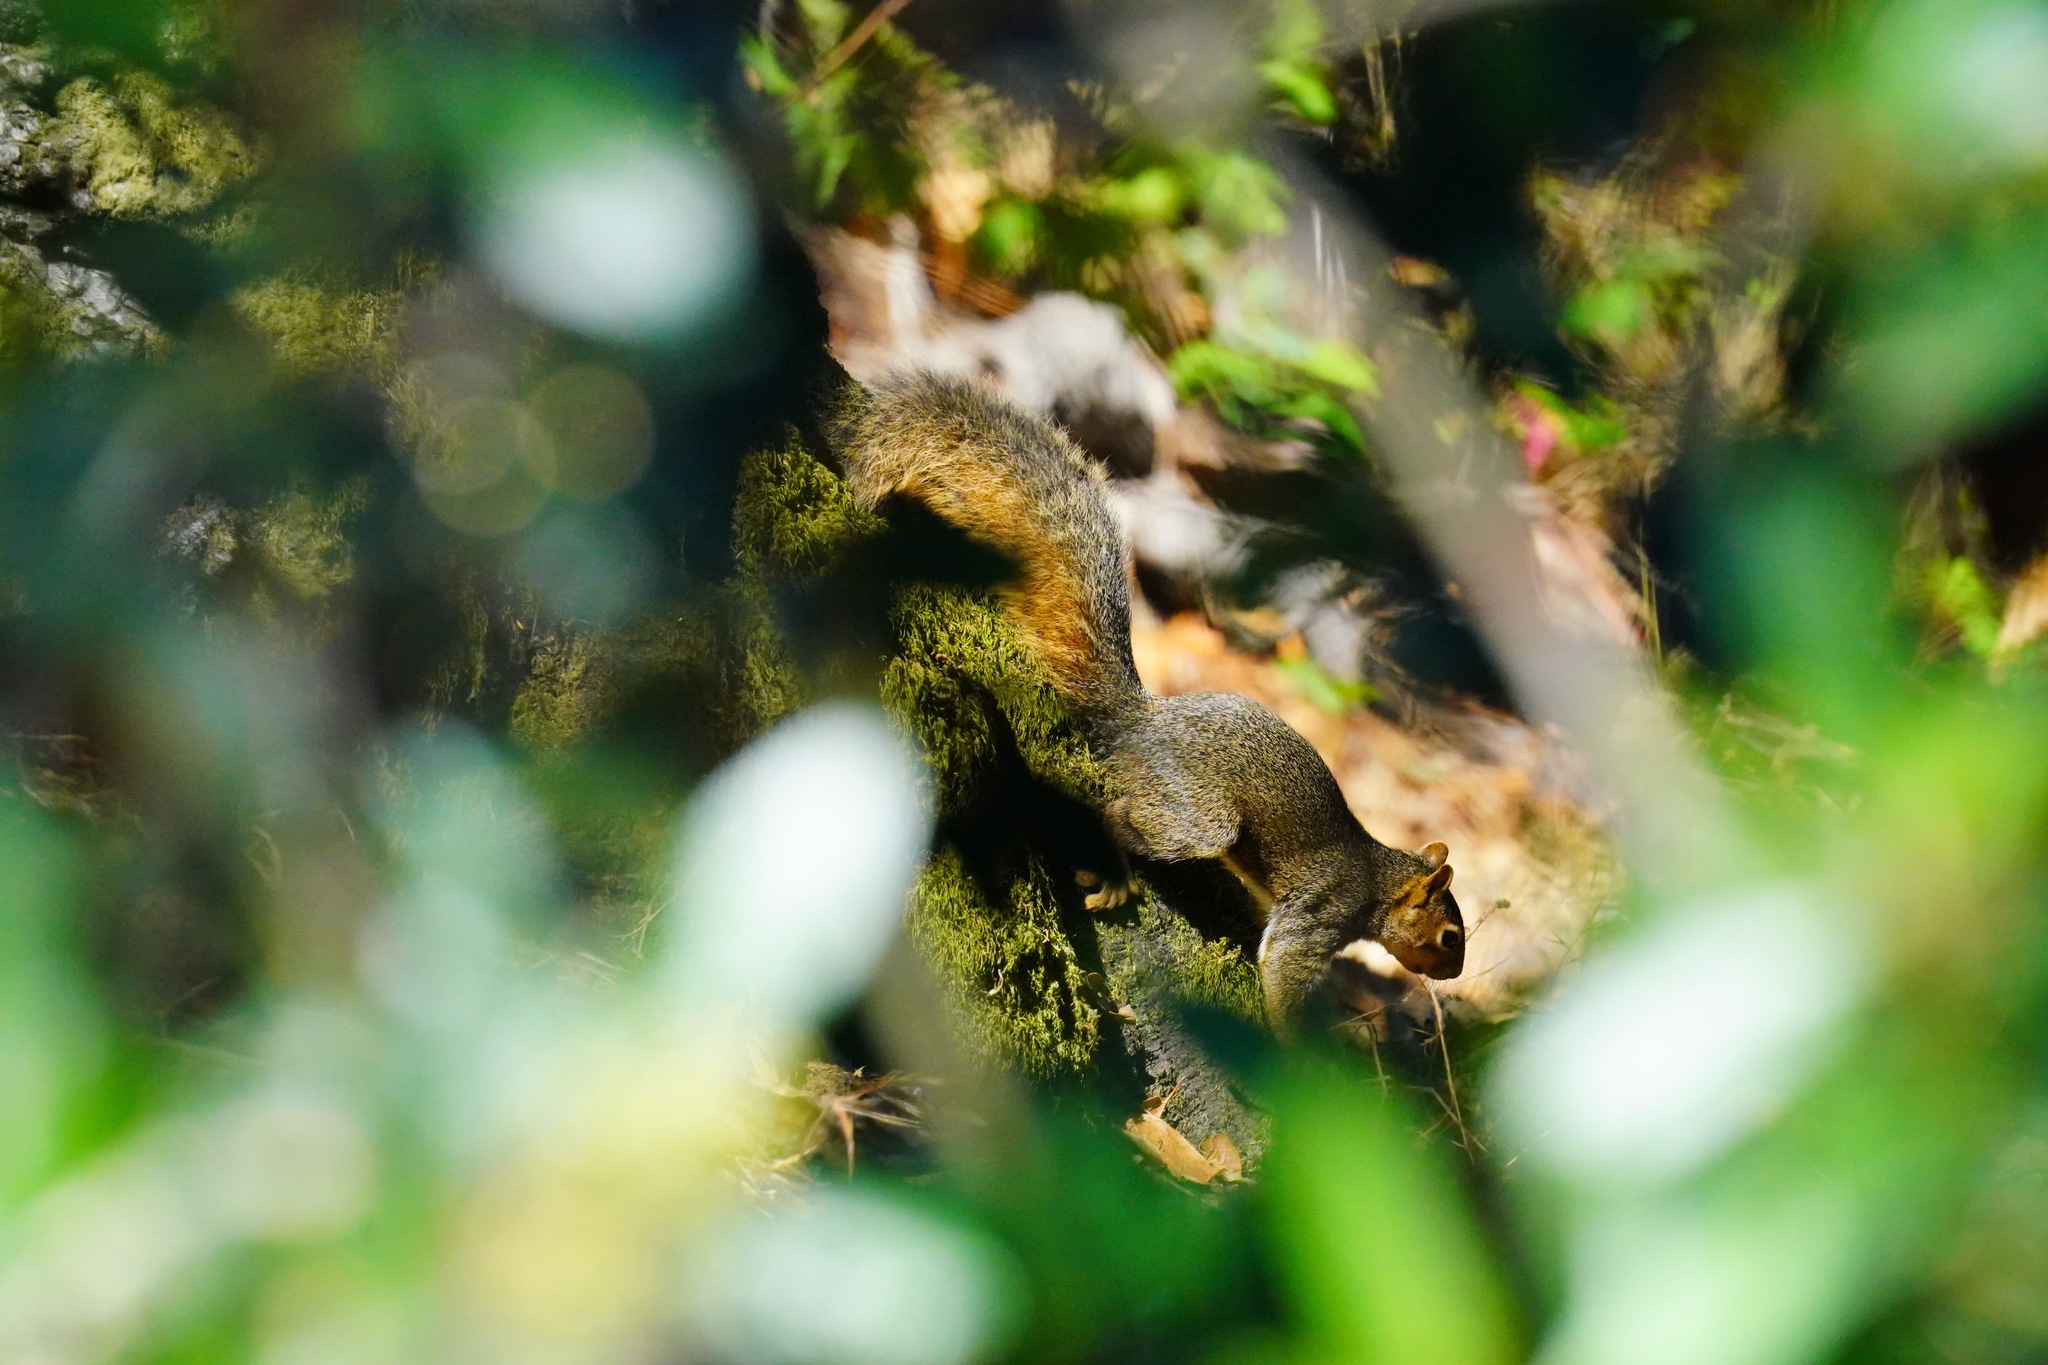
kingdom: Animalia
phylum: Chordata
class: Mammalia
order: Rodentia
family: Sciuridae
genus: Sciurus
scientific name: Sciurus niger
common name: Fox squirrel
